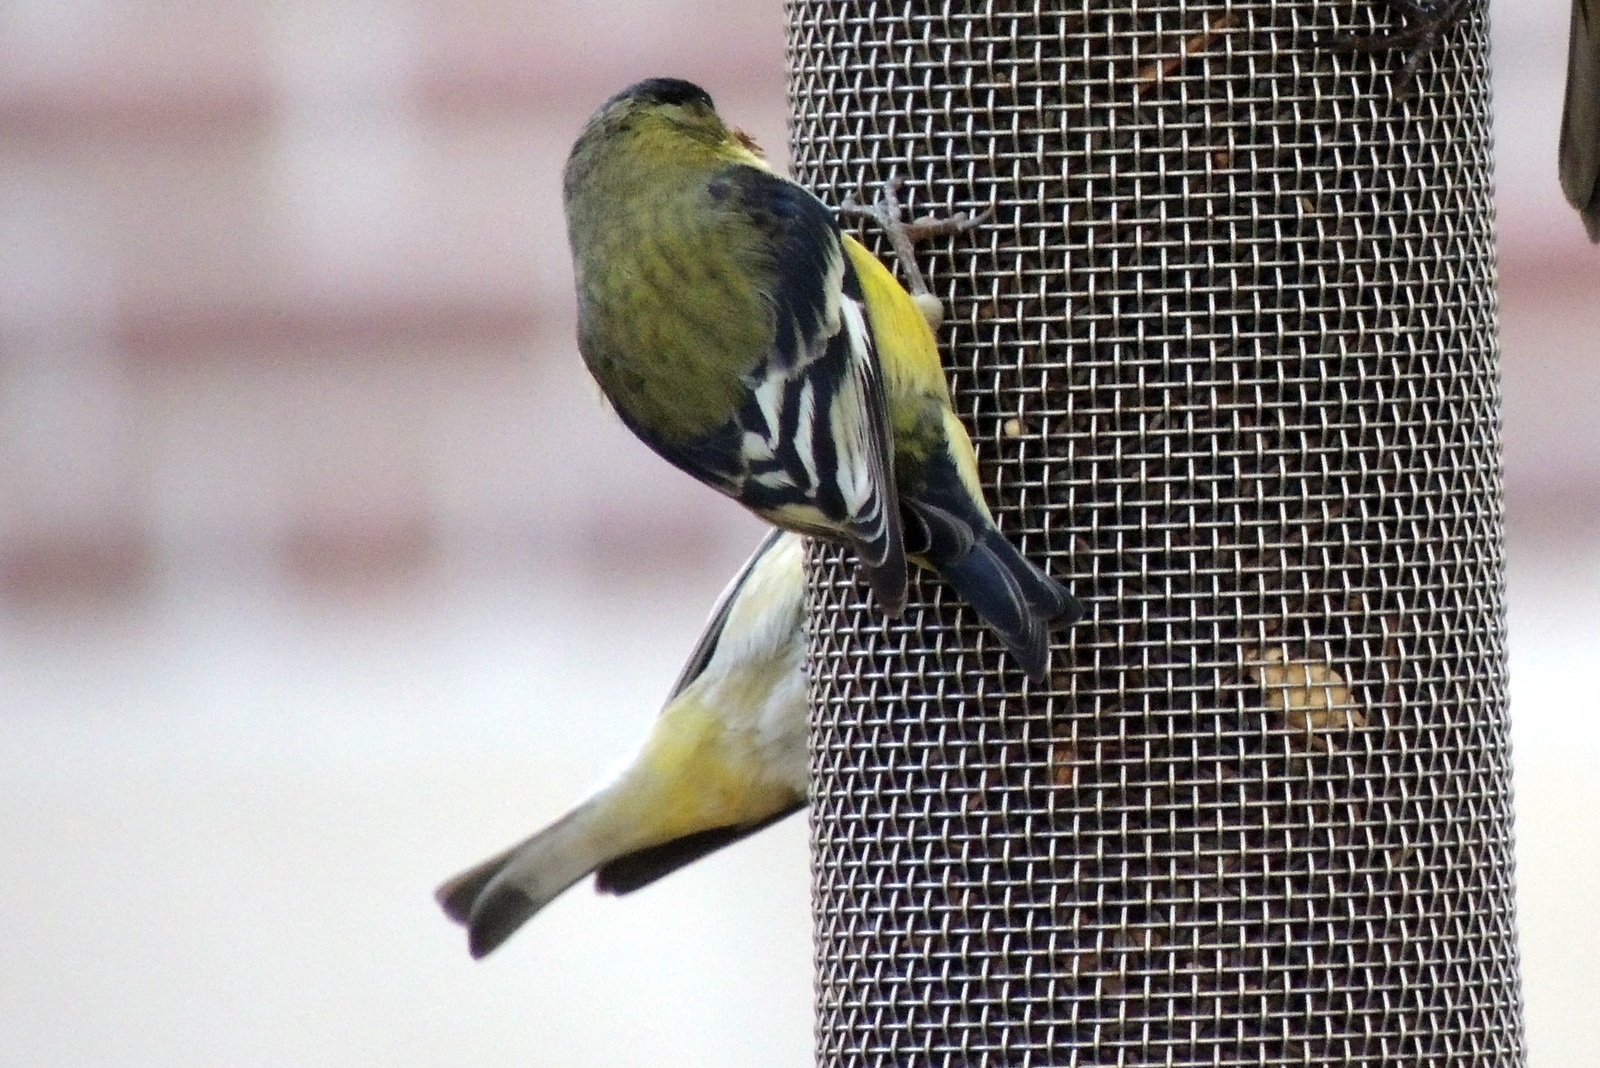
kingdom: Animalia
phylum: Chordata
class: Aves
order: Passeriformes
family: Fringillidae
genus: Spinus
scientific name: Spinus psaltria
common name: Lesser goldfinch
